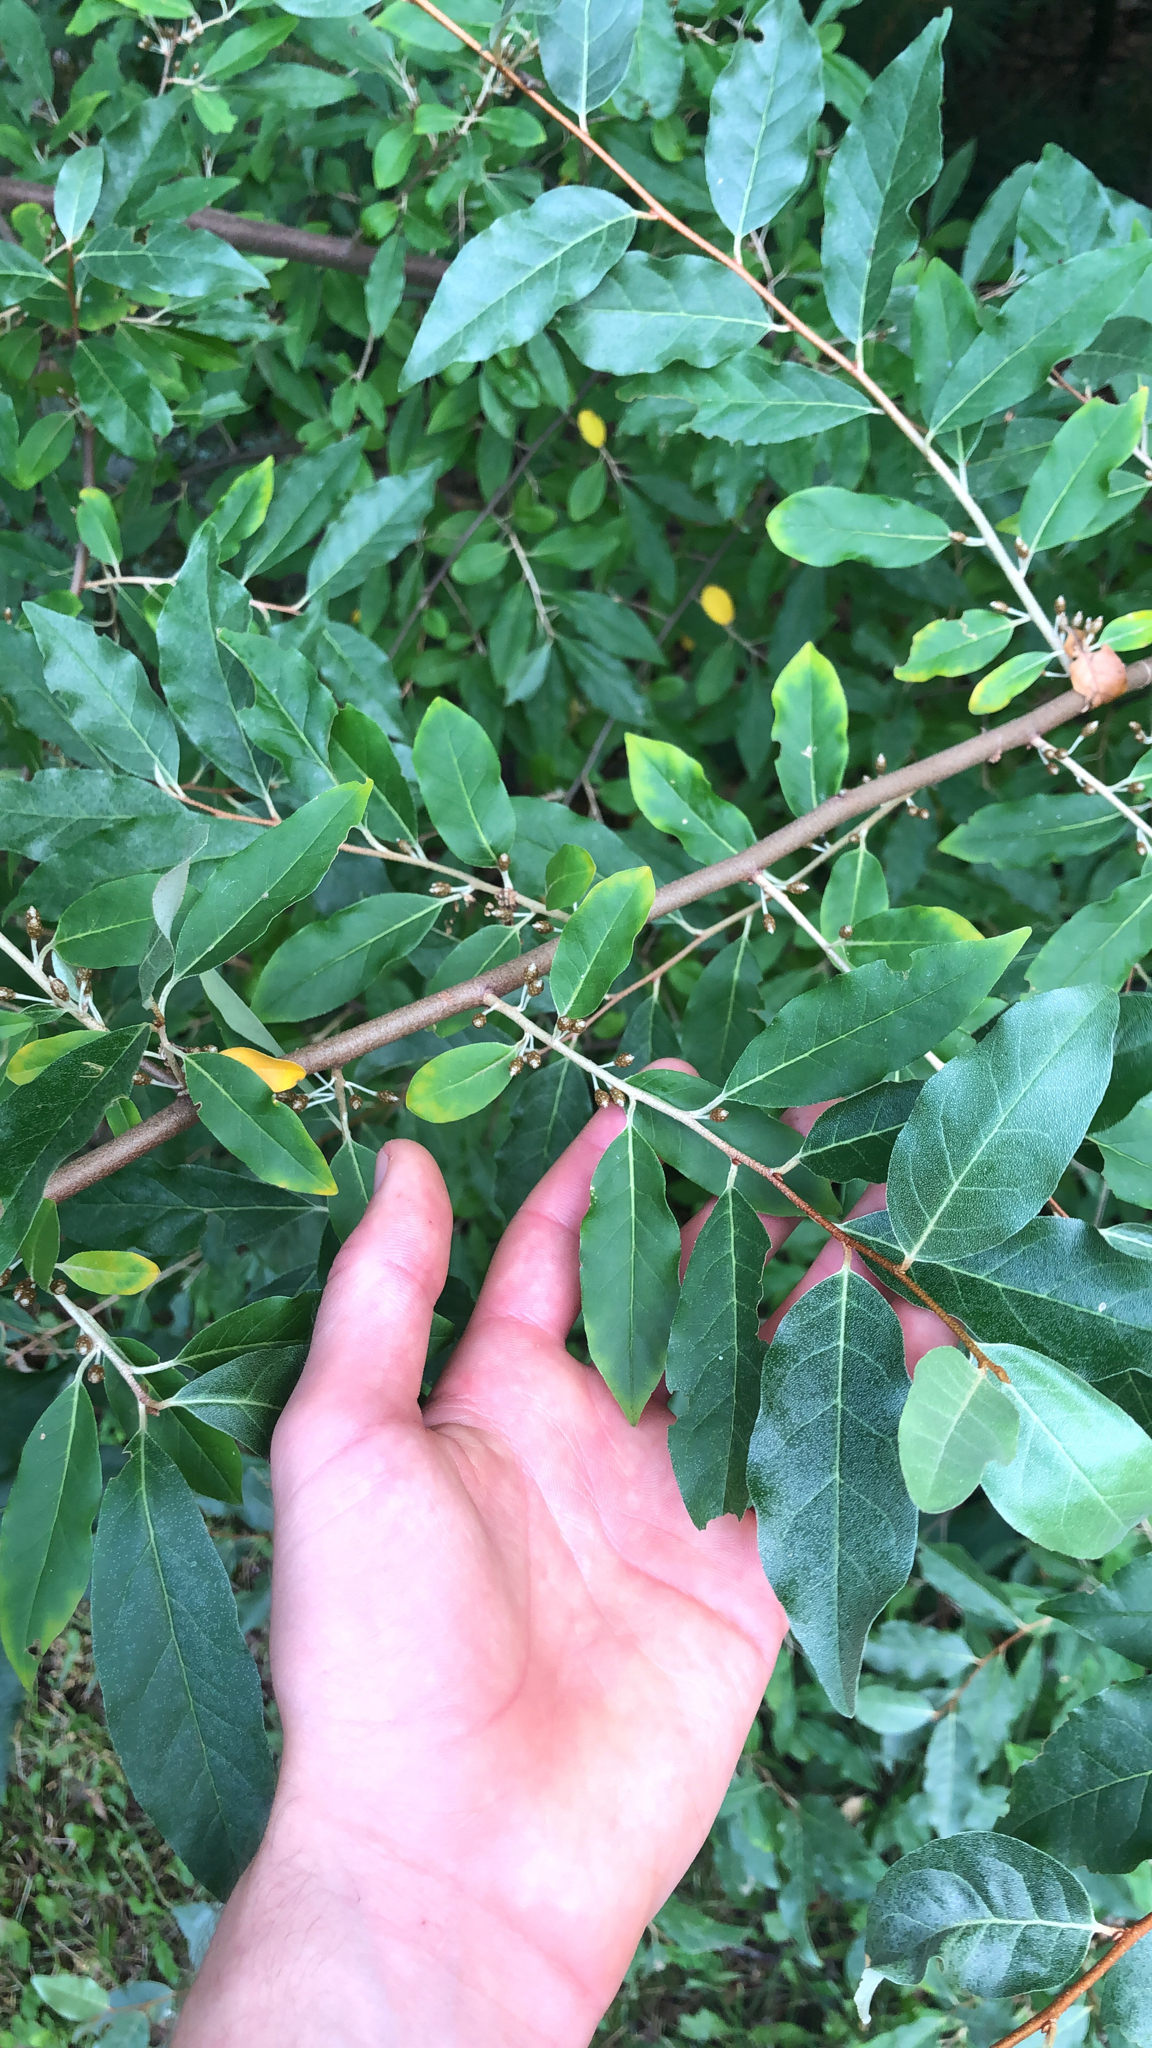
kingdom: Plantae
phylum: Tracheophyta
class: Magnoliopsida
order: Rosales
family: Elaeagnaceae
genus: Elaeagnus
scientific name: Elaeagnus umbellata
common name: Autumn olive
